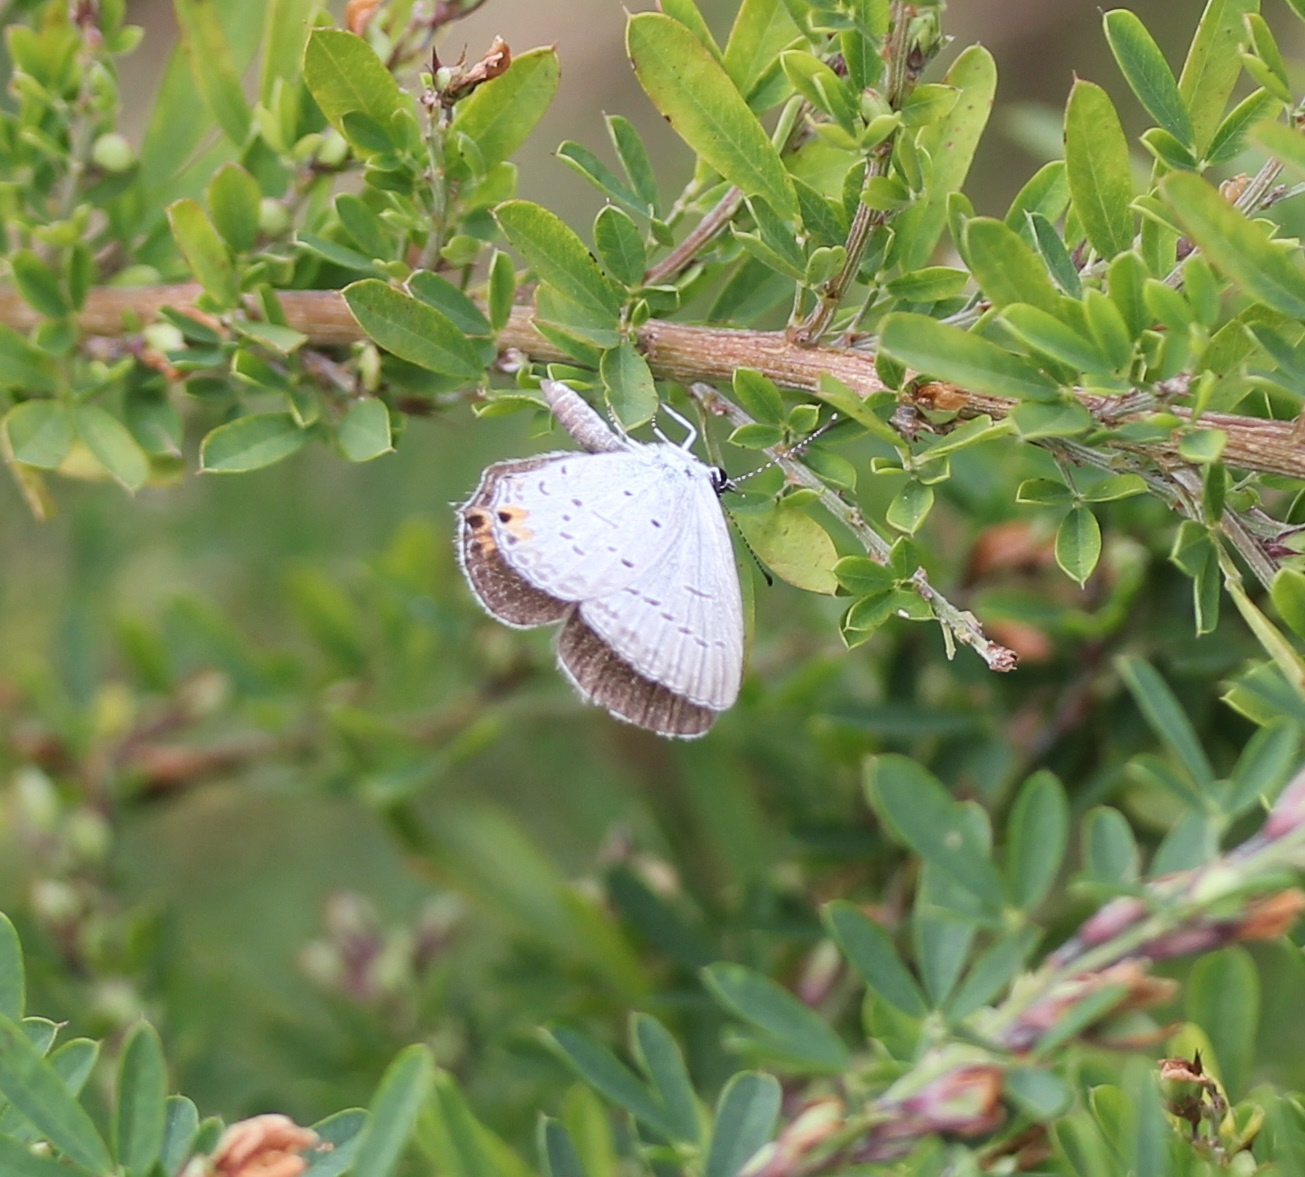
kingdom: Animalia
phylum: Arthropoda
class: Insecta
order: Lepidoptera
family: Lycaenidae
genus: Elkalyce
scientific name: Elkalyce comyntas
